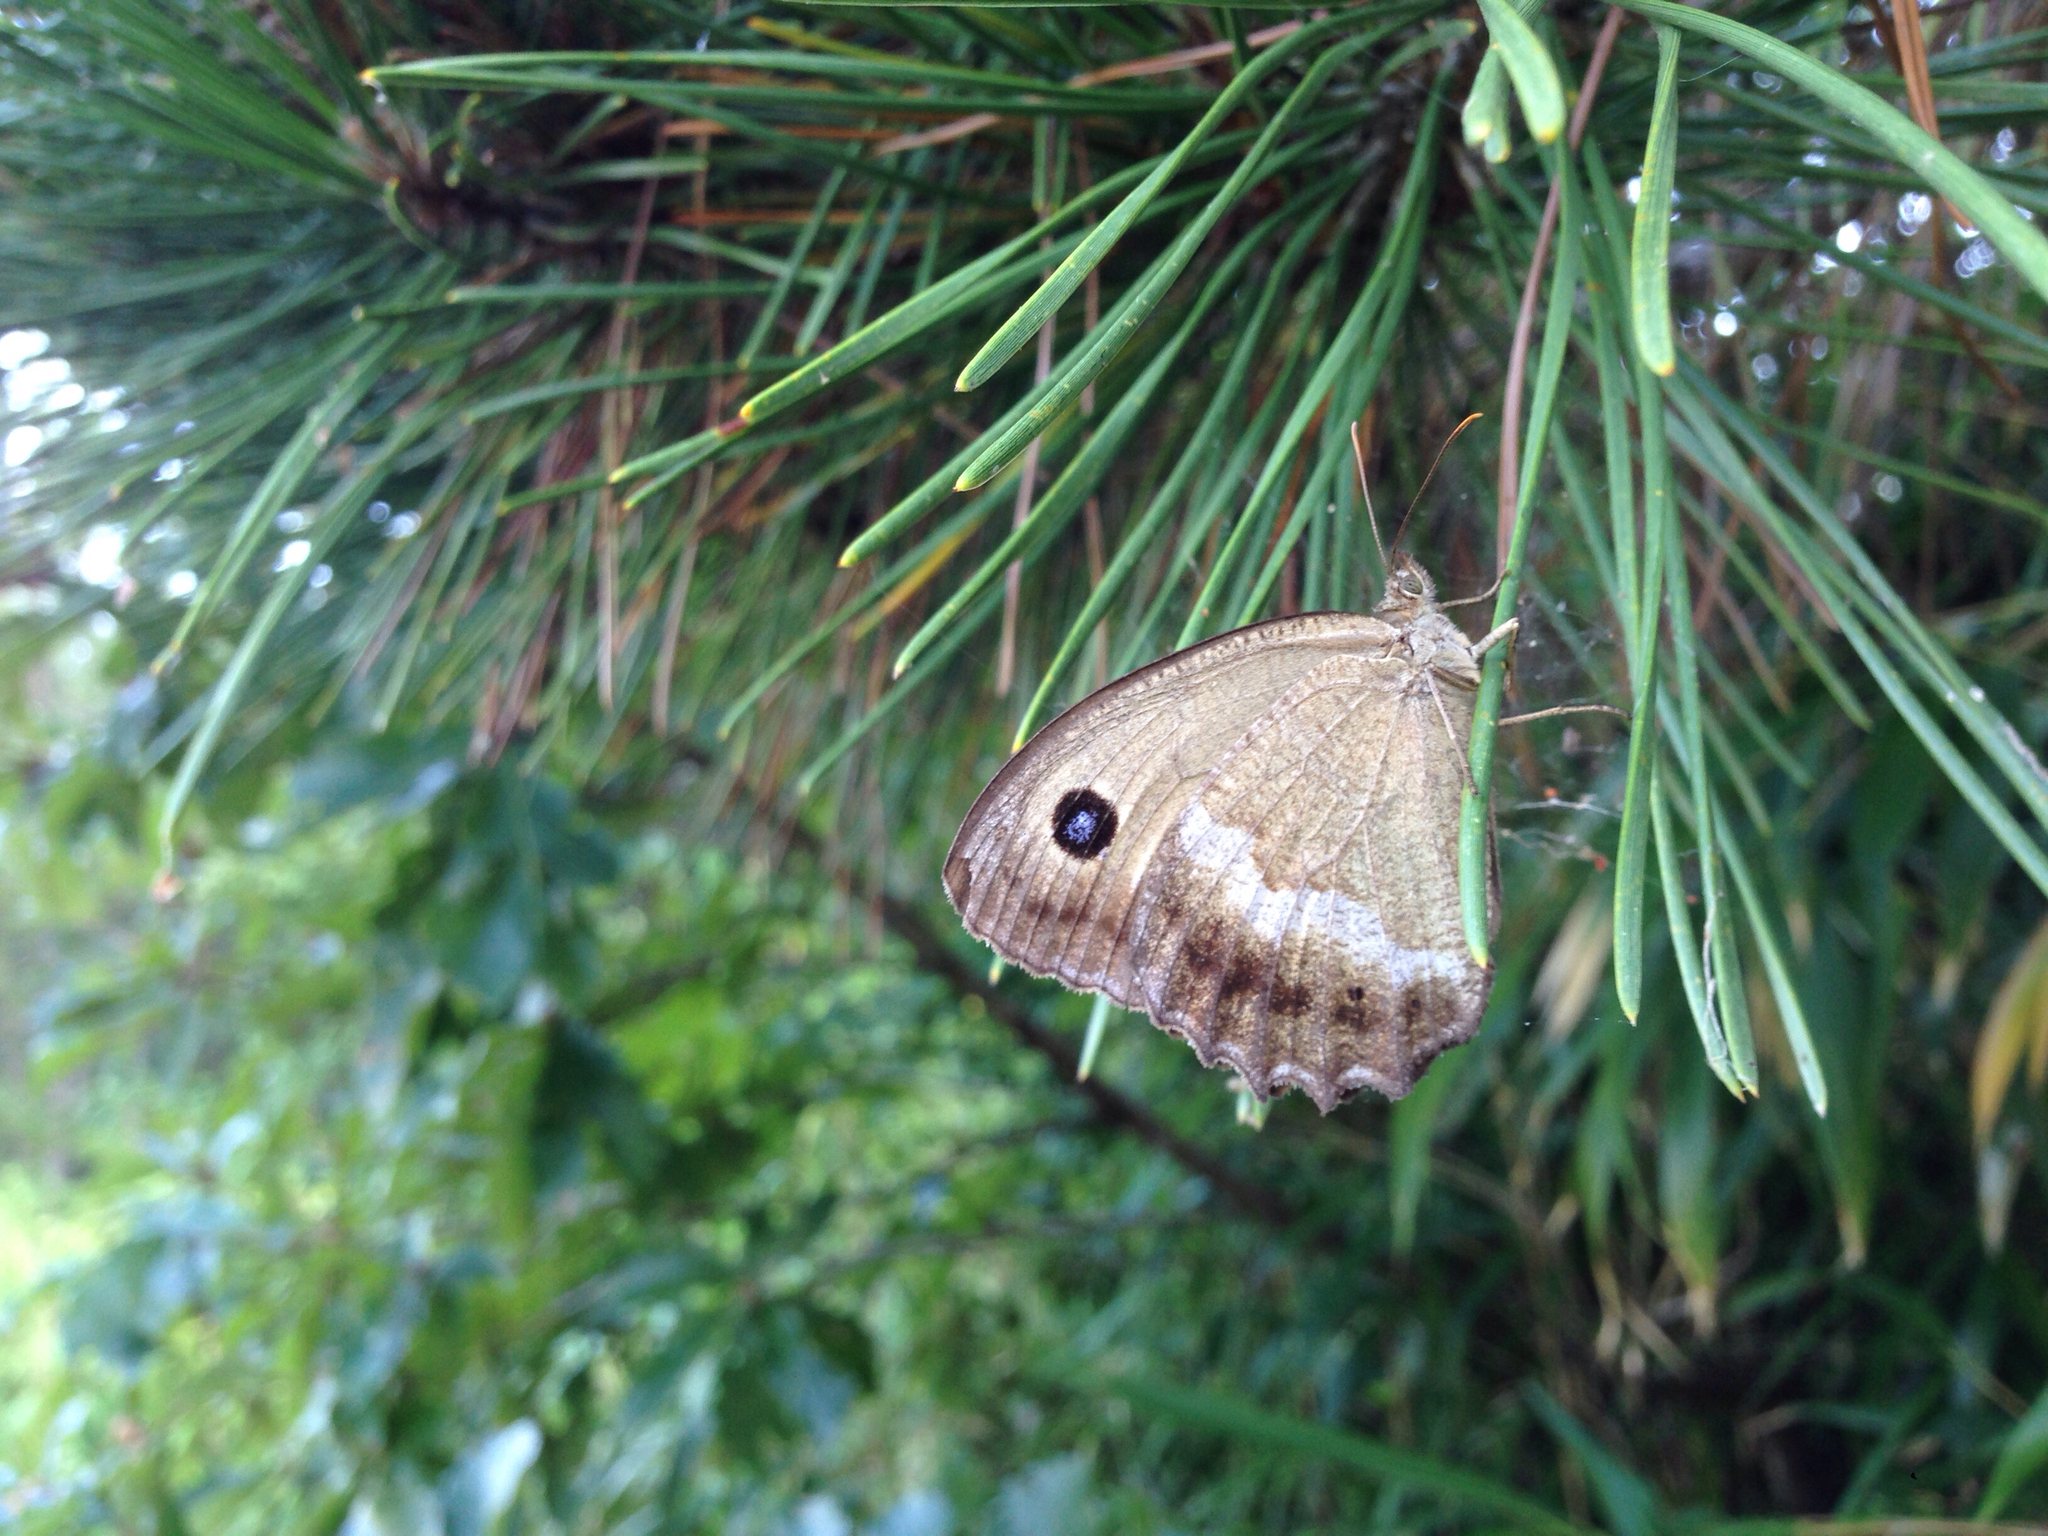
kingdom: Animalia
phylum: Arthropoda
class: Insecta
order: Lepidoptera
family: Nymphalidae
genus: Minois
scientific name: Minois dryas
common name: Dryad
